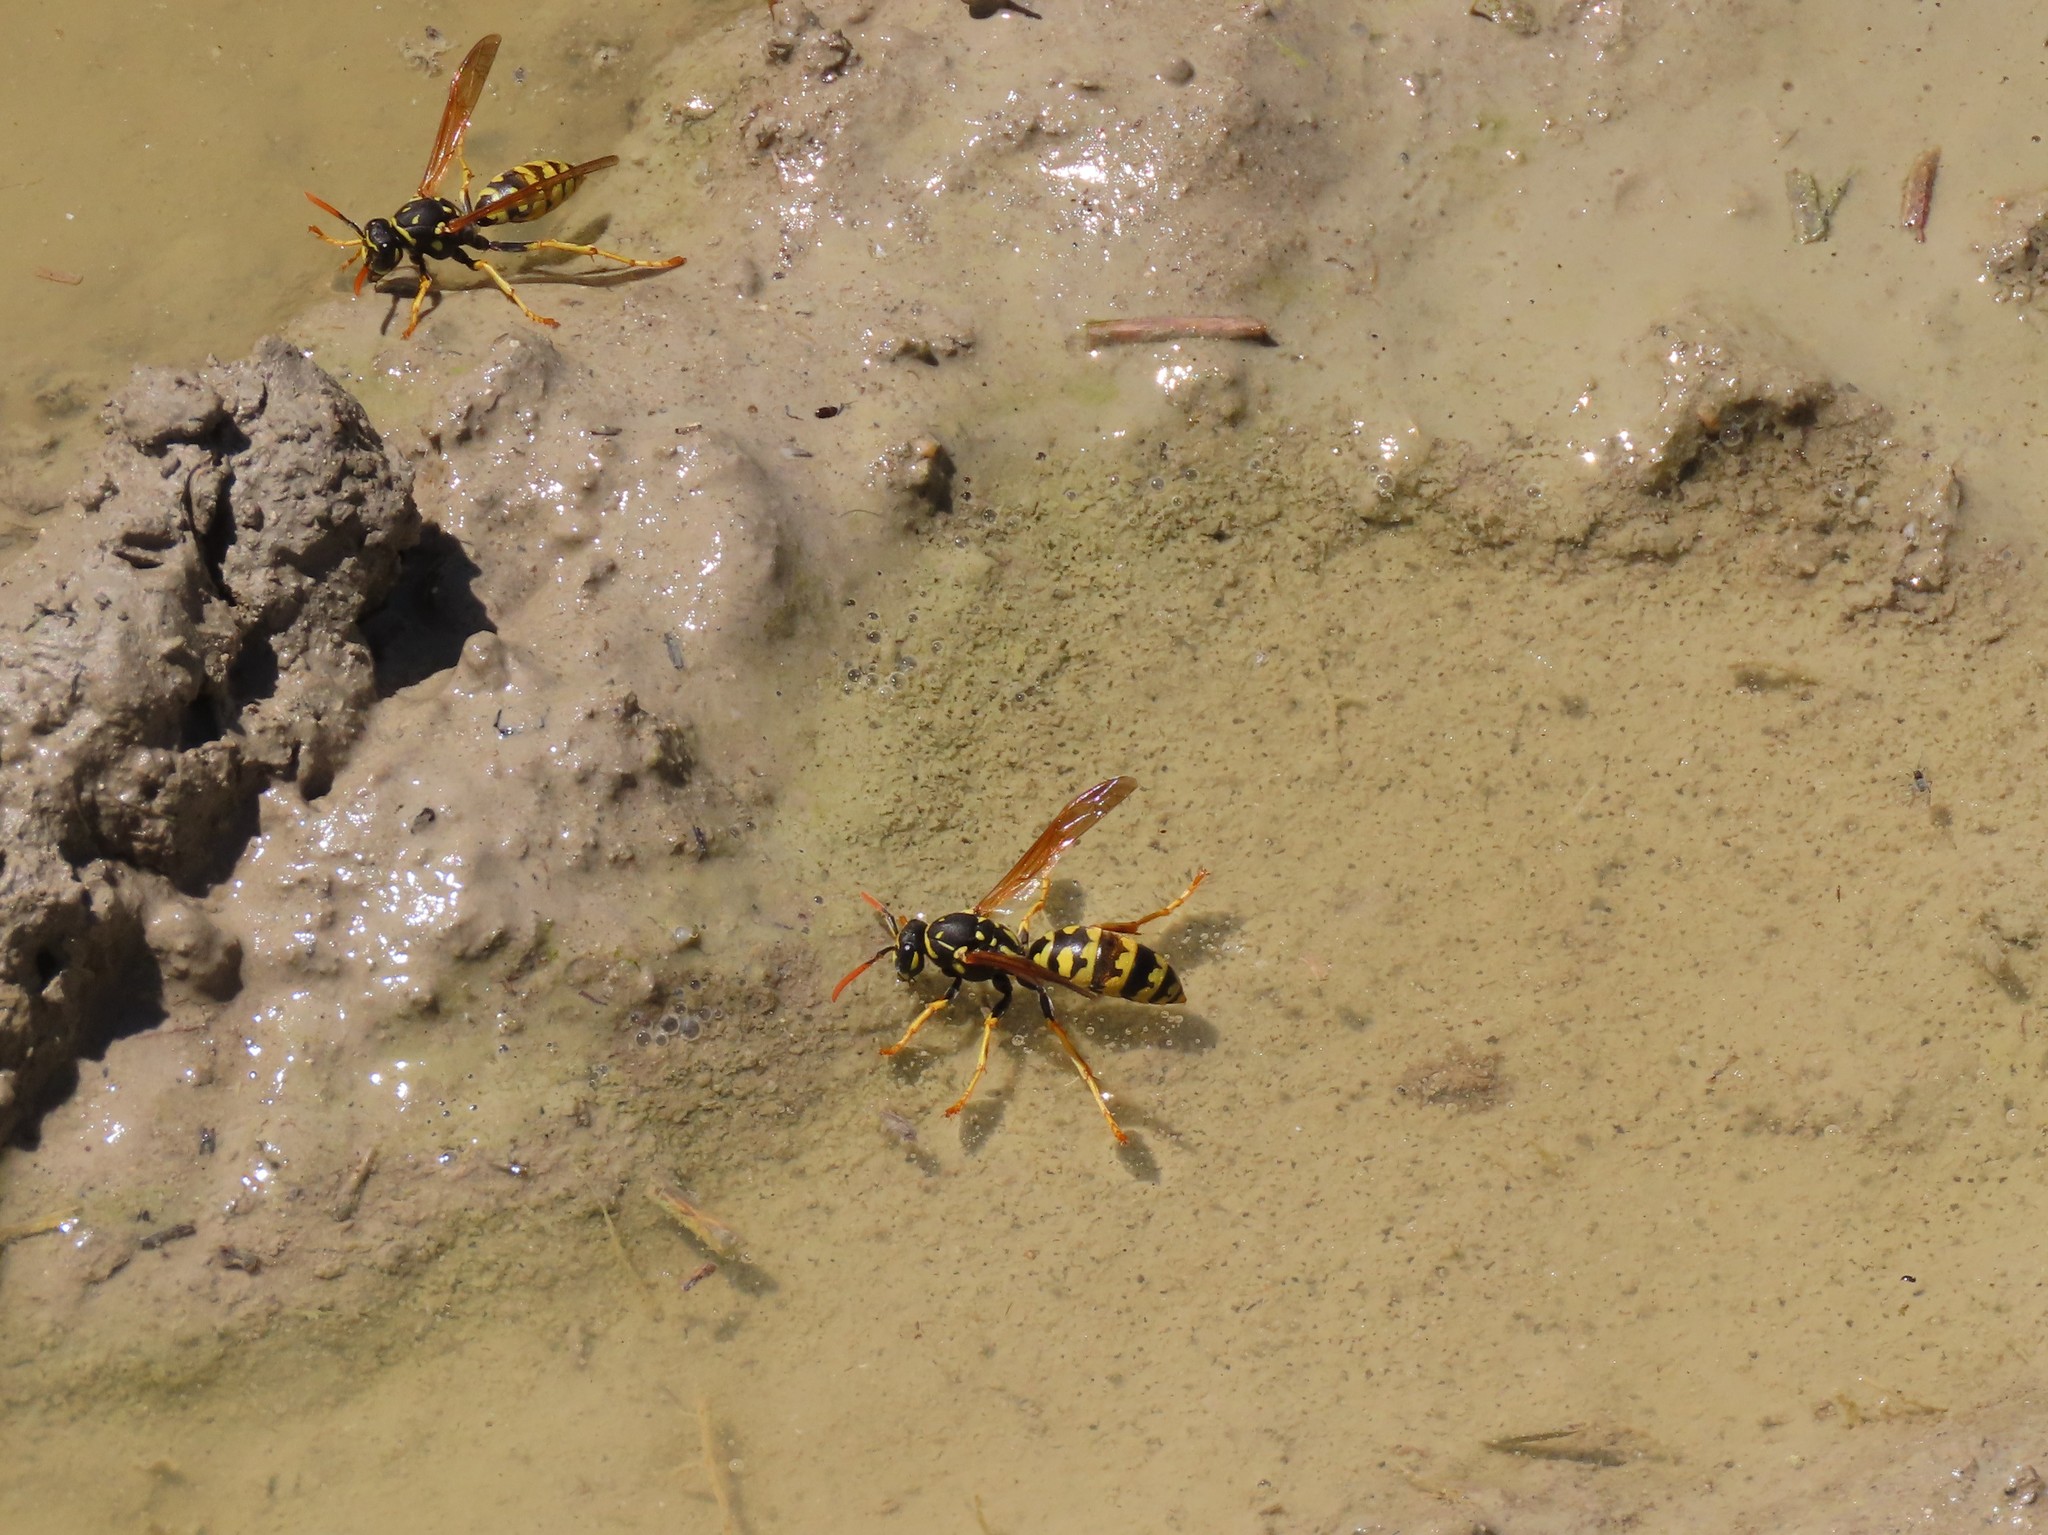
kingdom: Animalia
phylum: Arthropoda
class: Insecta
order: Hymenoptera
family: Eumenidae
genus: Polistes
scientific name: Polistes dominula
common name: Paper wasp
